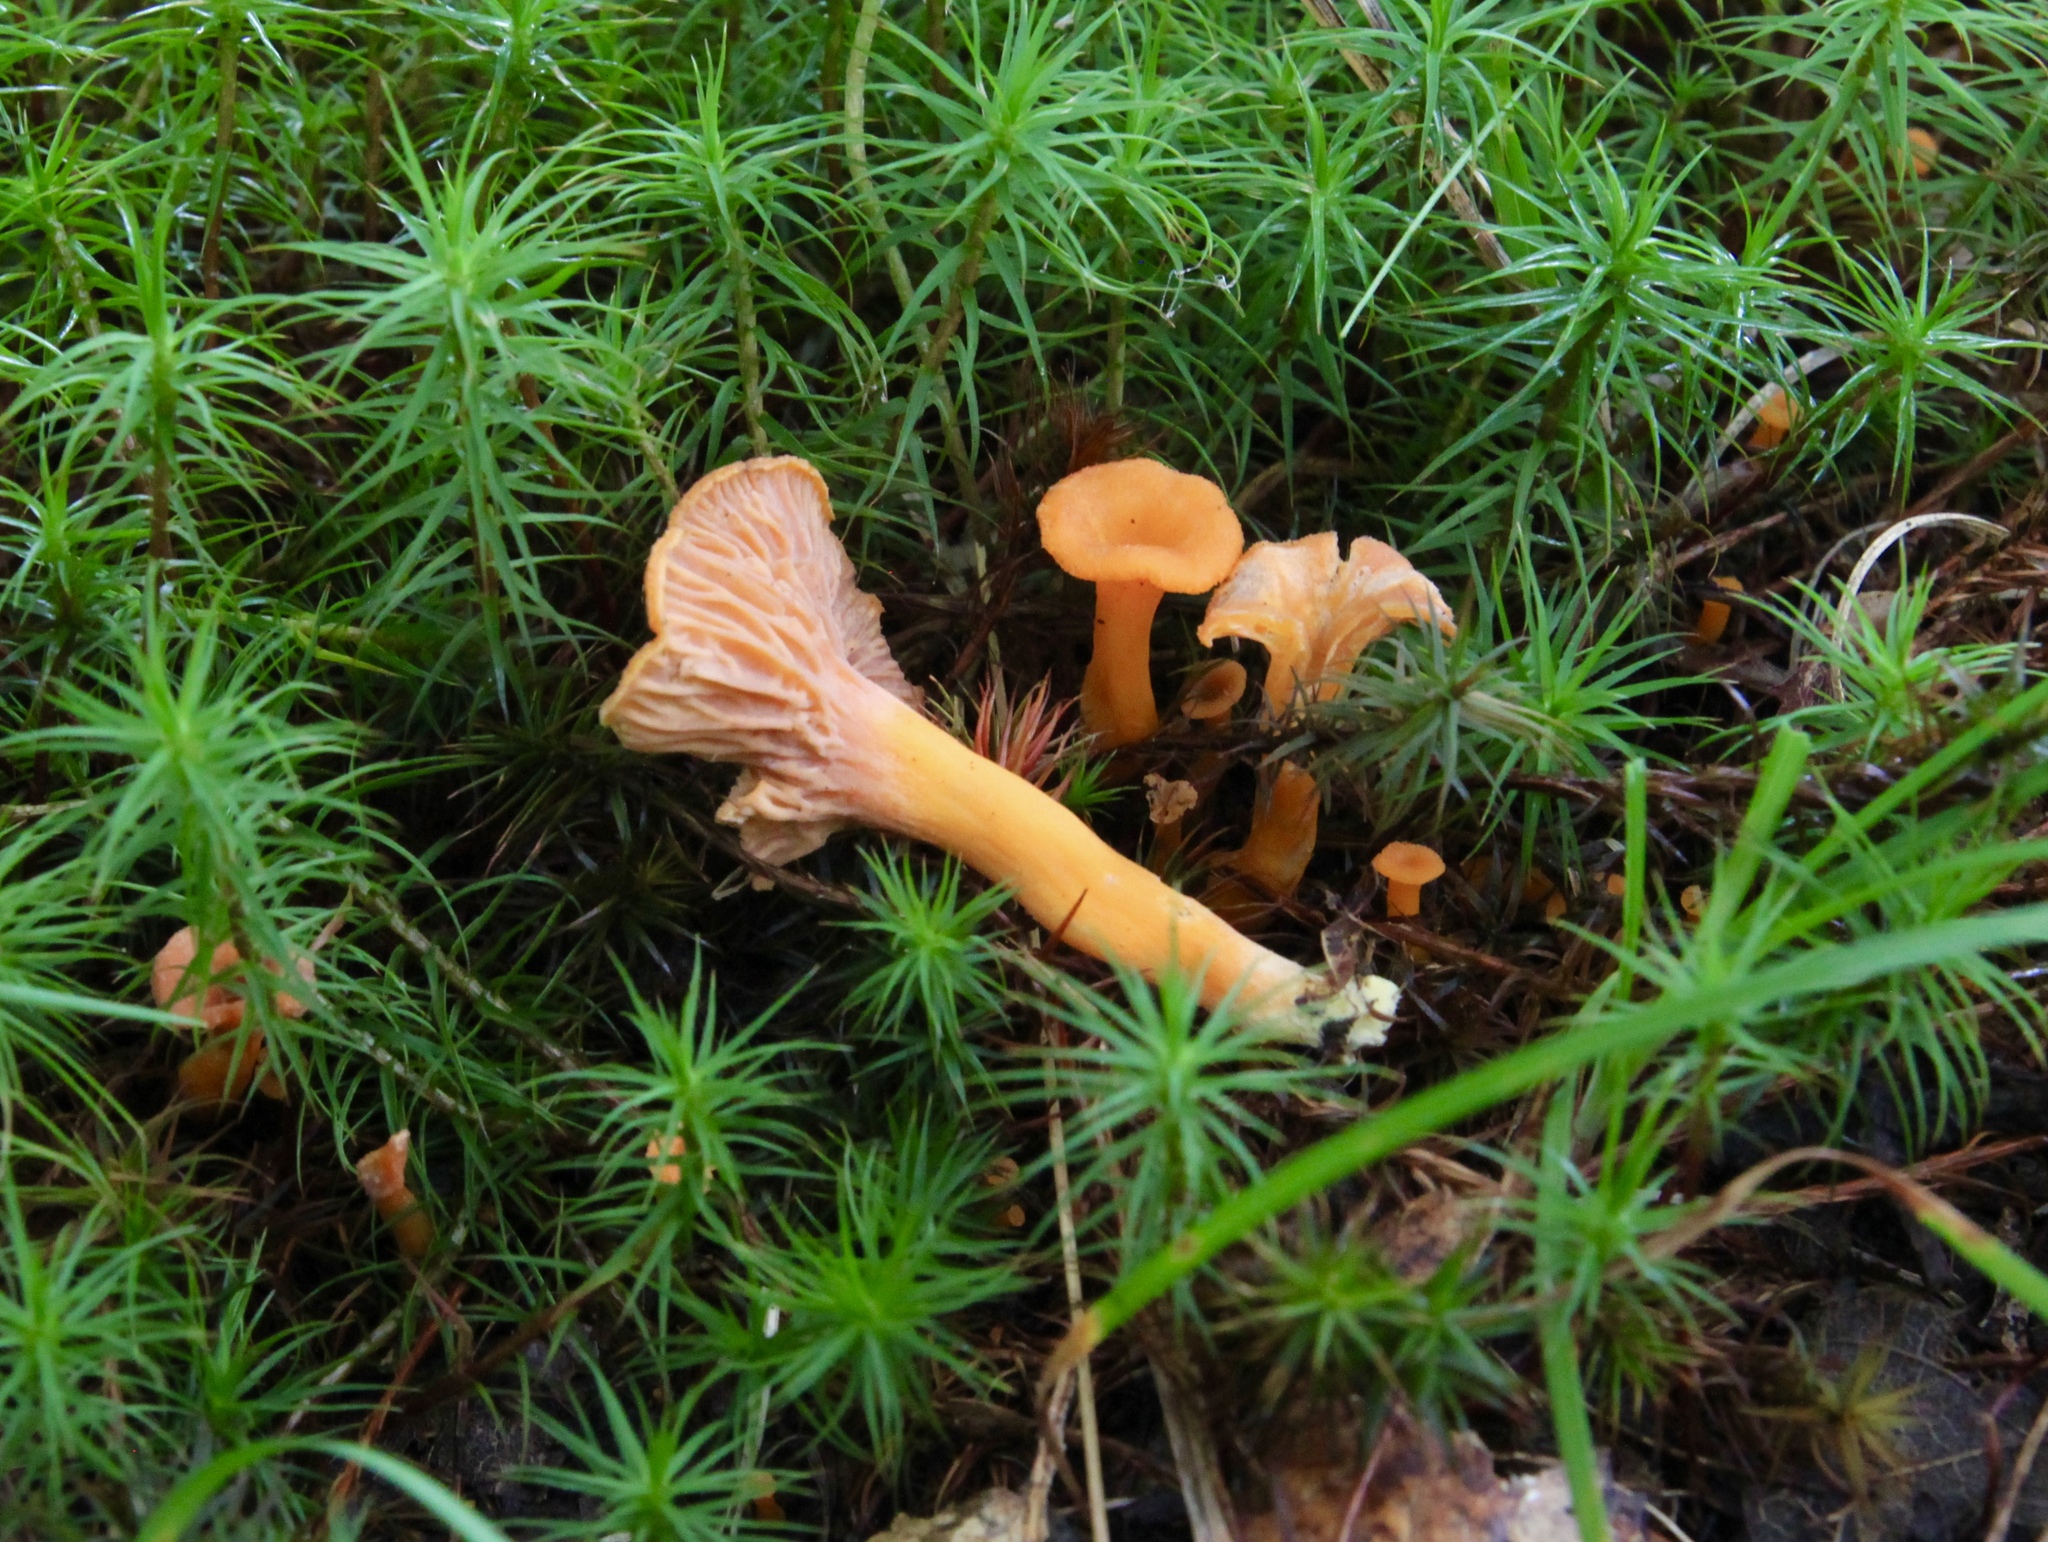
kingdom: Fungi
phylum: Basidiomycota
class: Agaricomycetes
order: Cantharellales
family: Hydnaceae
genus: Craterellus
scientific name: Craterellus ignicolor
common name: Flame chanterelle
